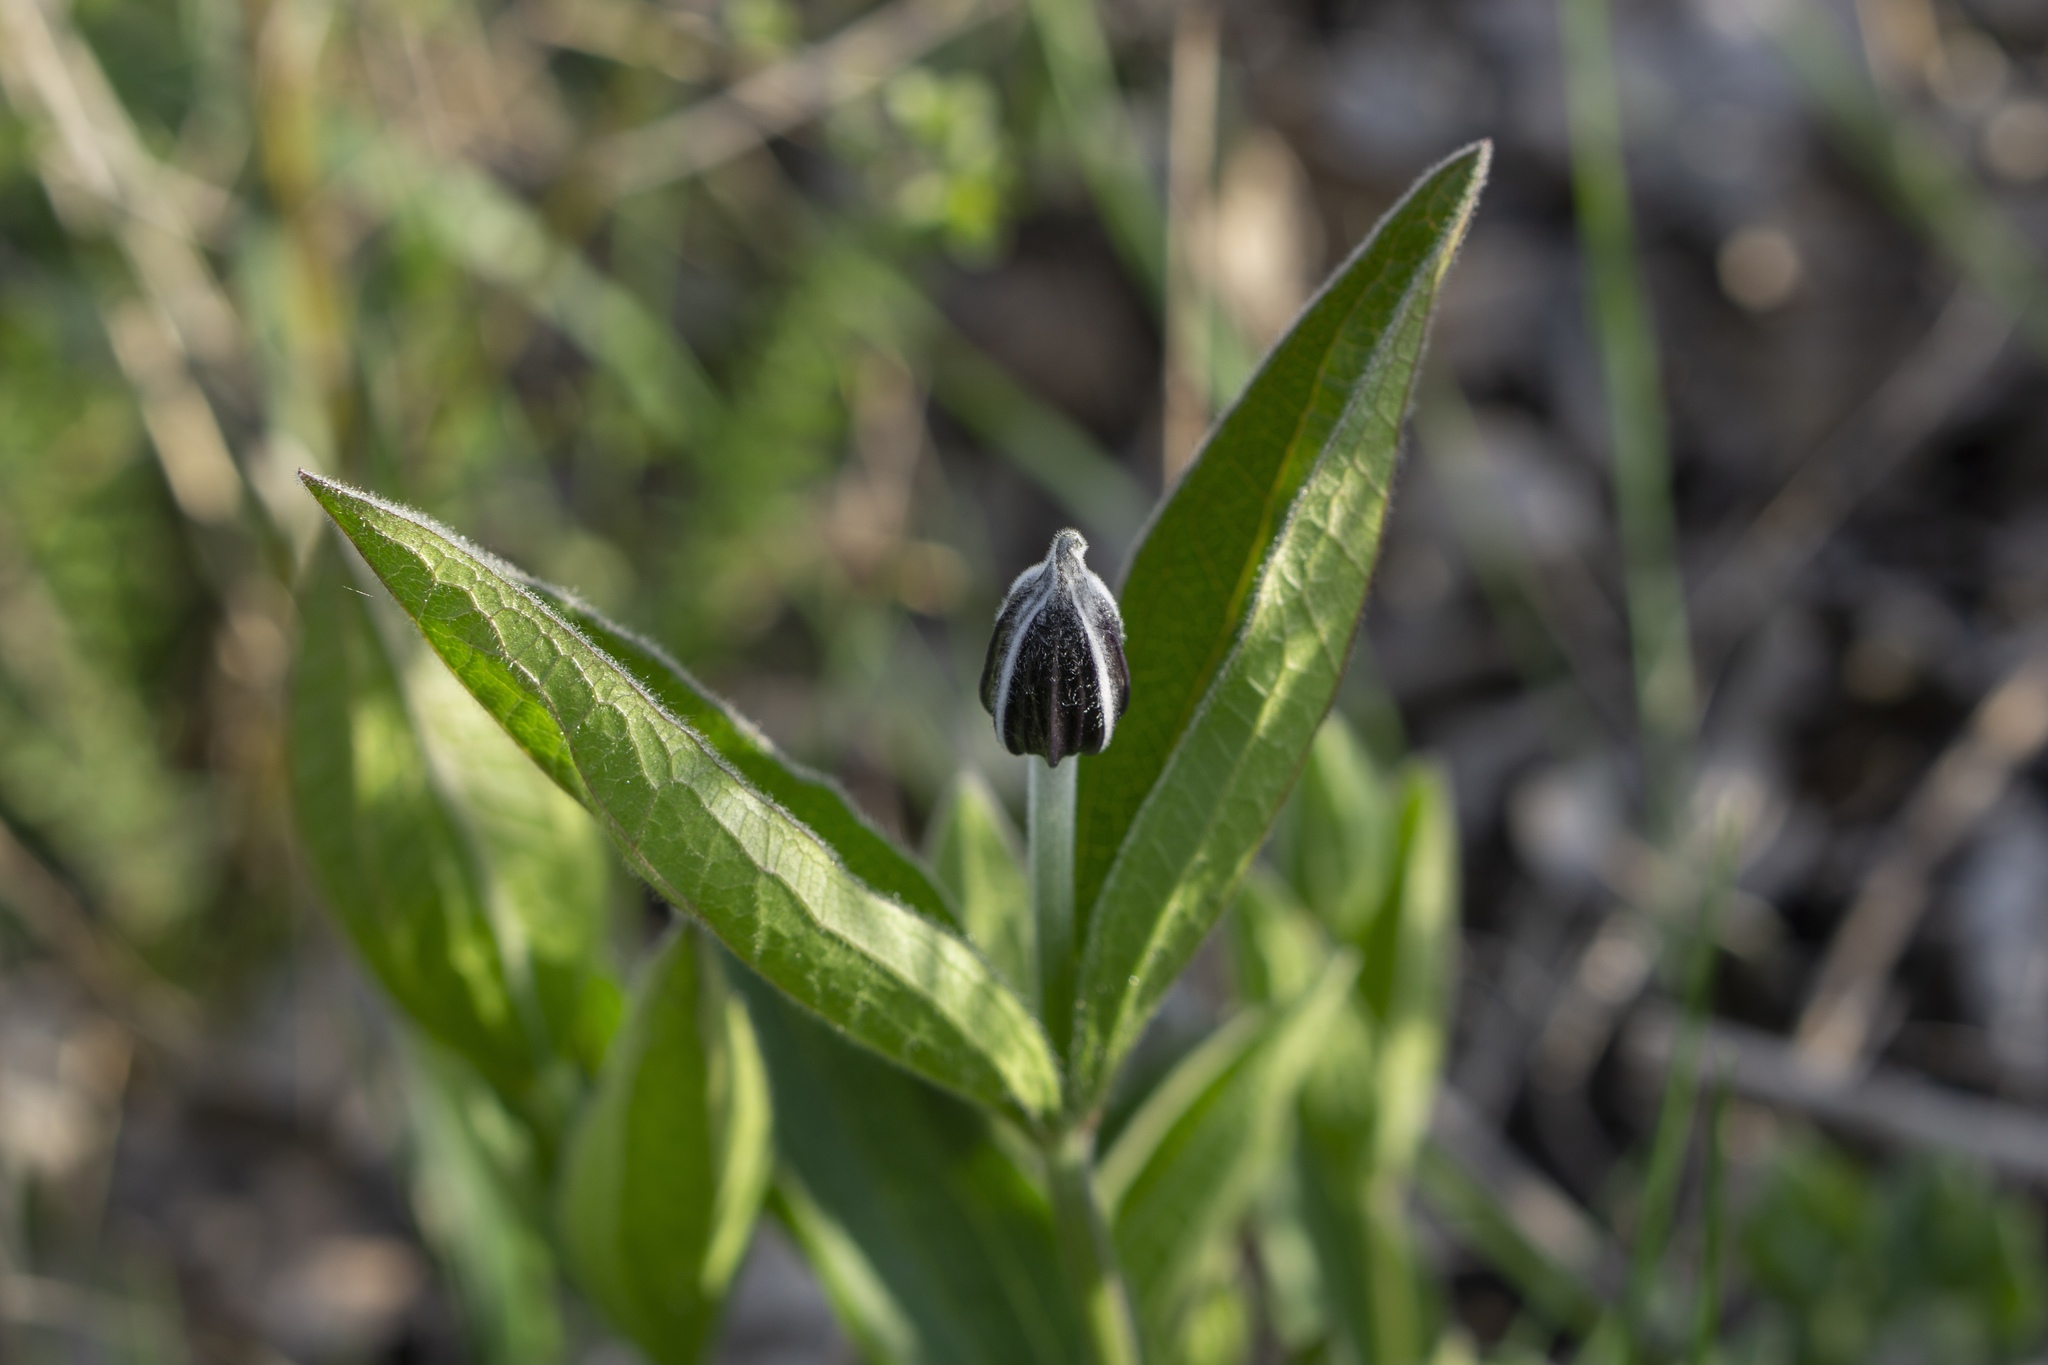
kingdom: Plantae
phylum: Tracheophyta
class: Magnoliopsida
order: Ranunculales
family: Ranunculaceae
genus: Clematis
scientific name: Clematis integrifolia
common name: Solitary clematis
